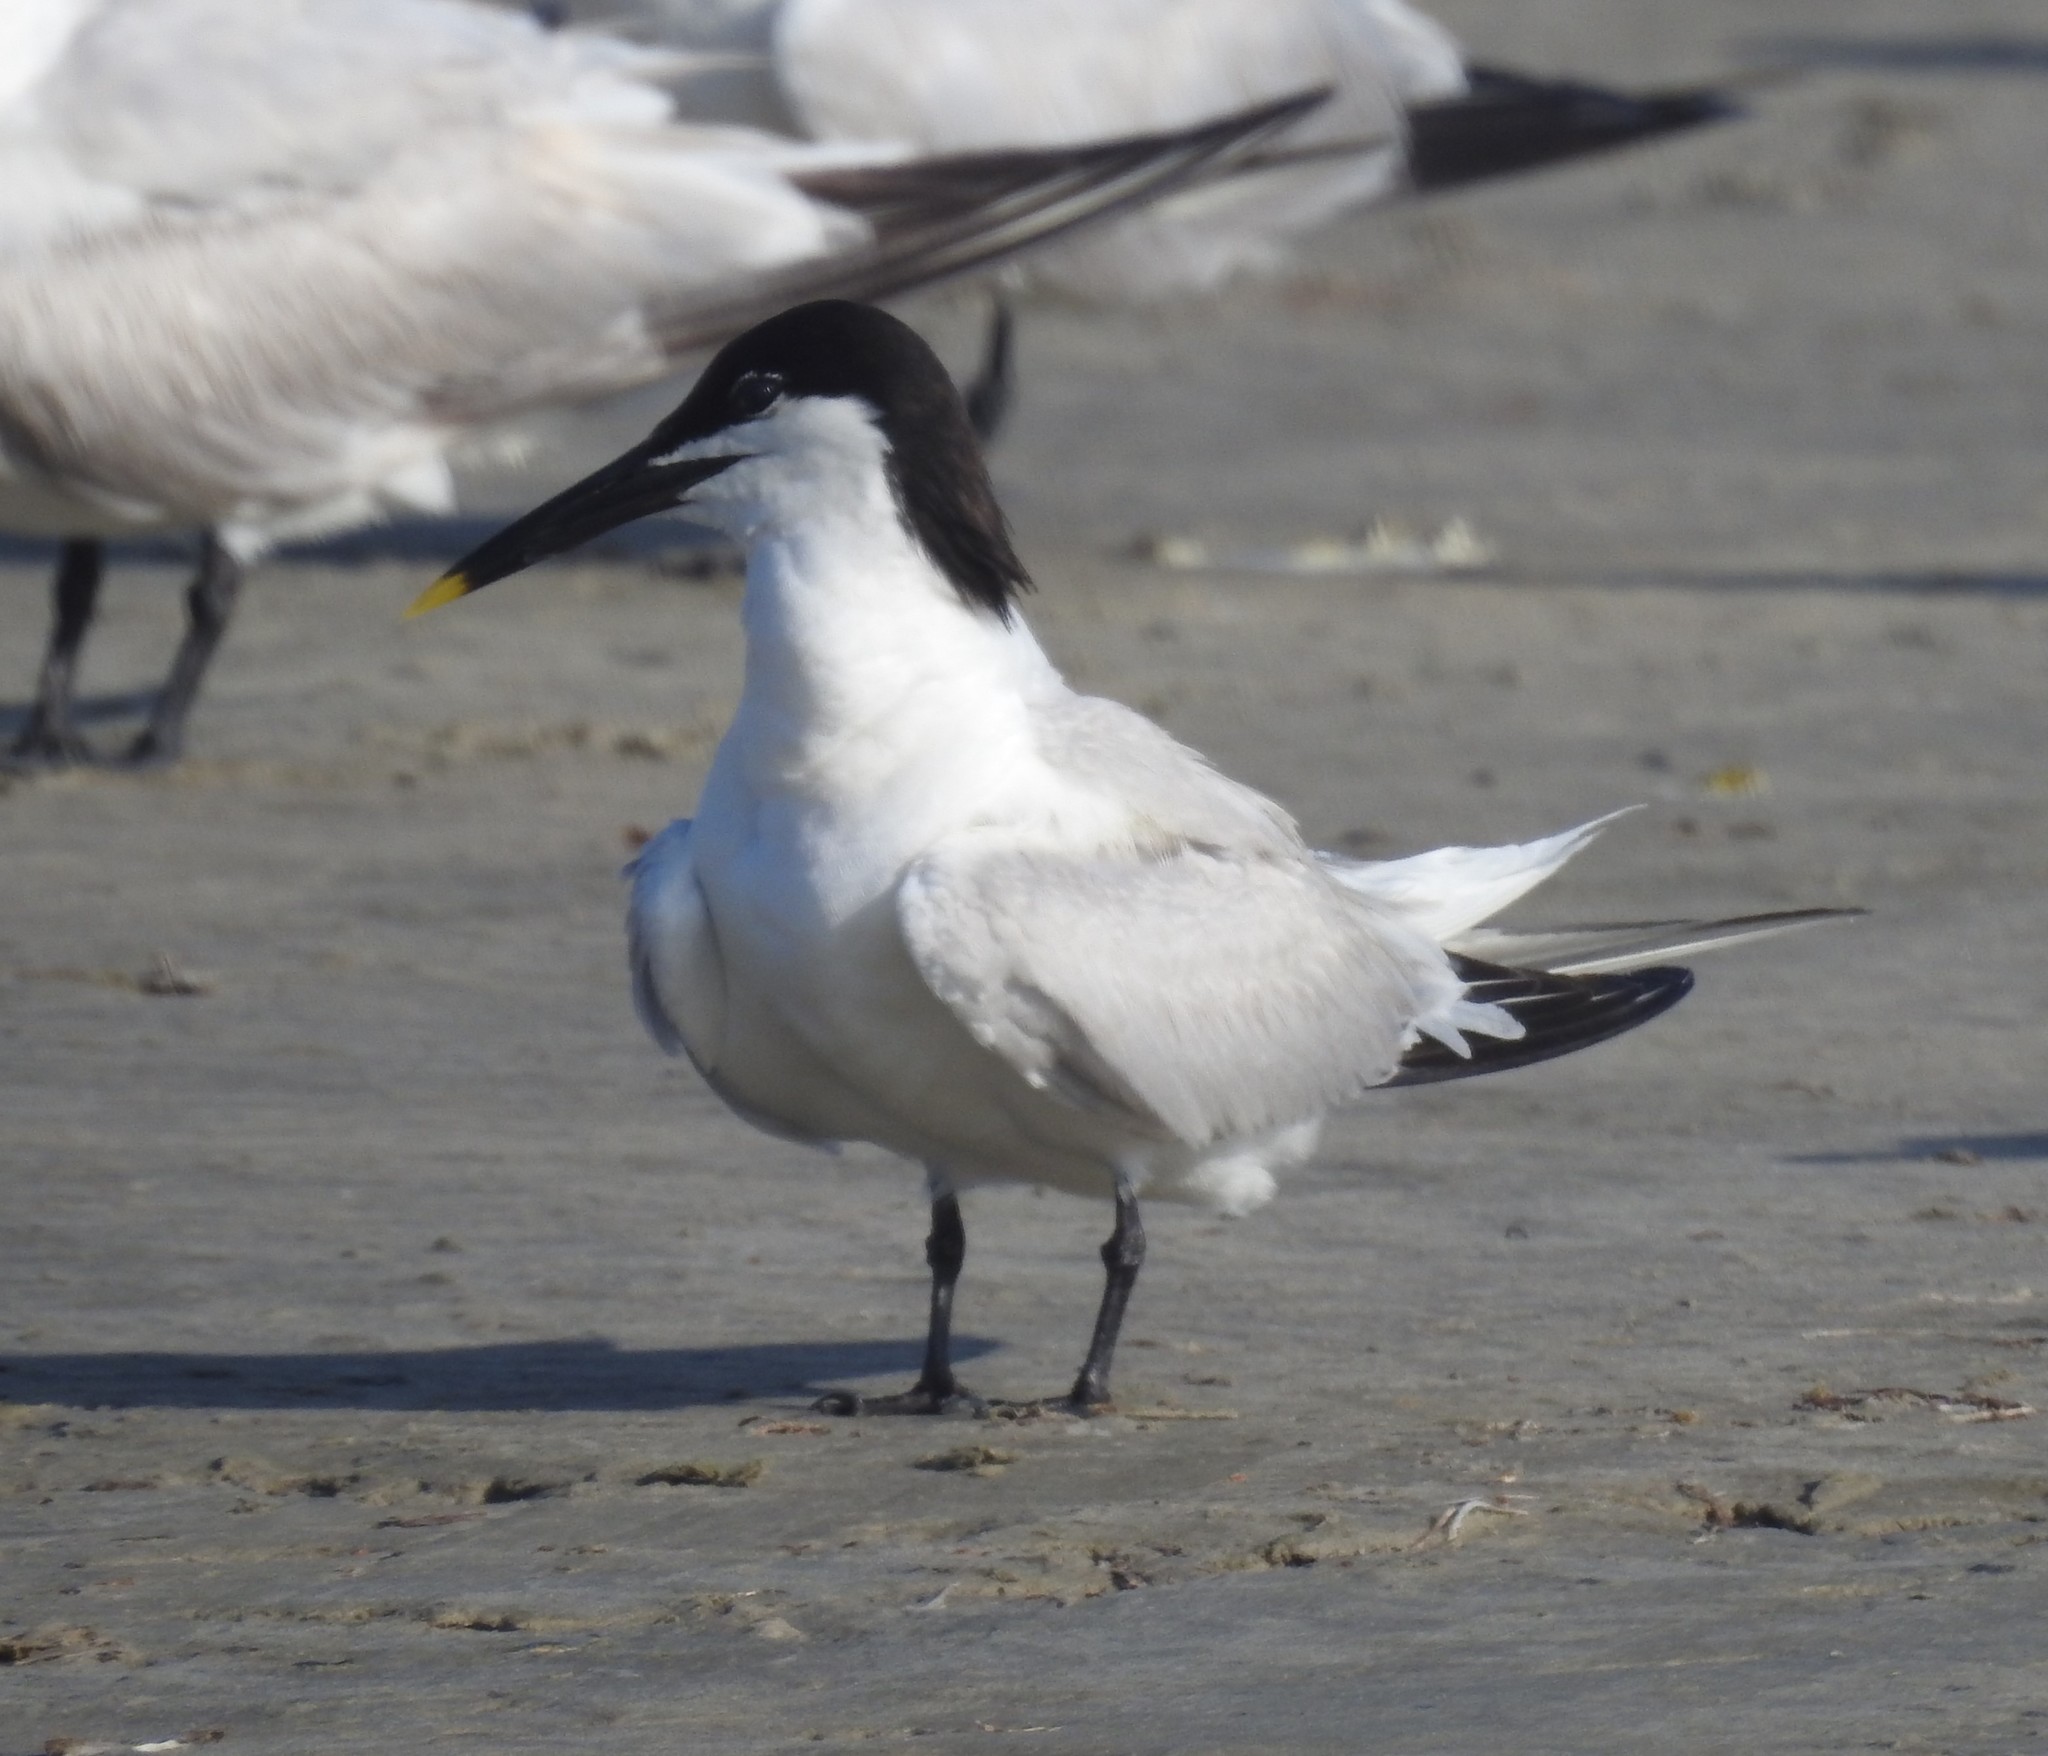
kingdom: Animalia
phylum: Chordata
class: Aves
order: Charadriiformes
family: Laridae
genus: Thalasseus
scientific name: Thalasseus sandvicensis
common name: Sandwich tern
